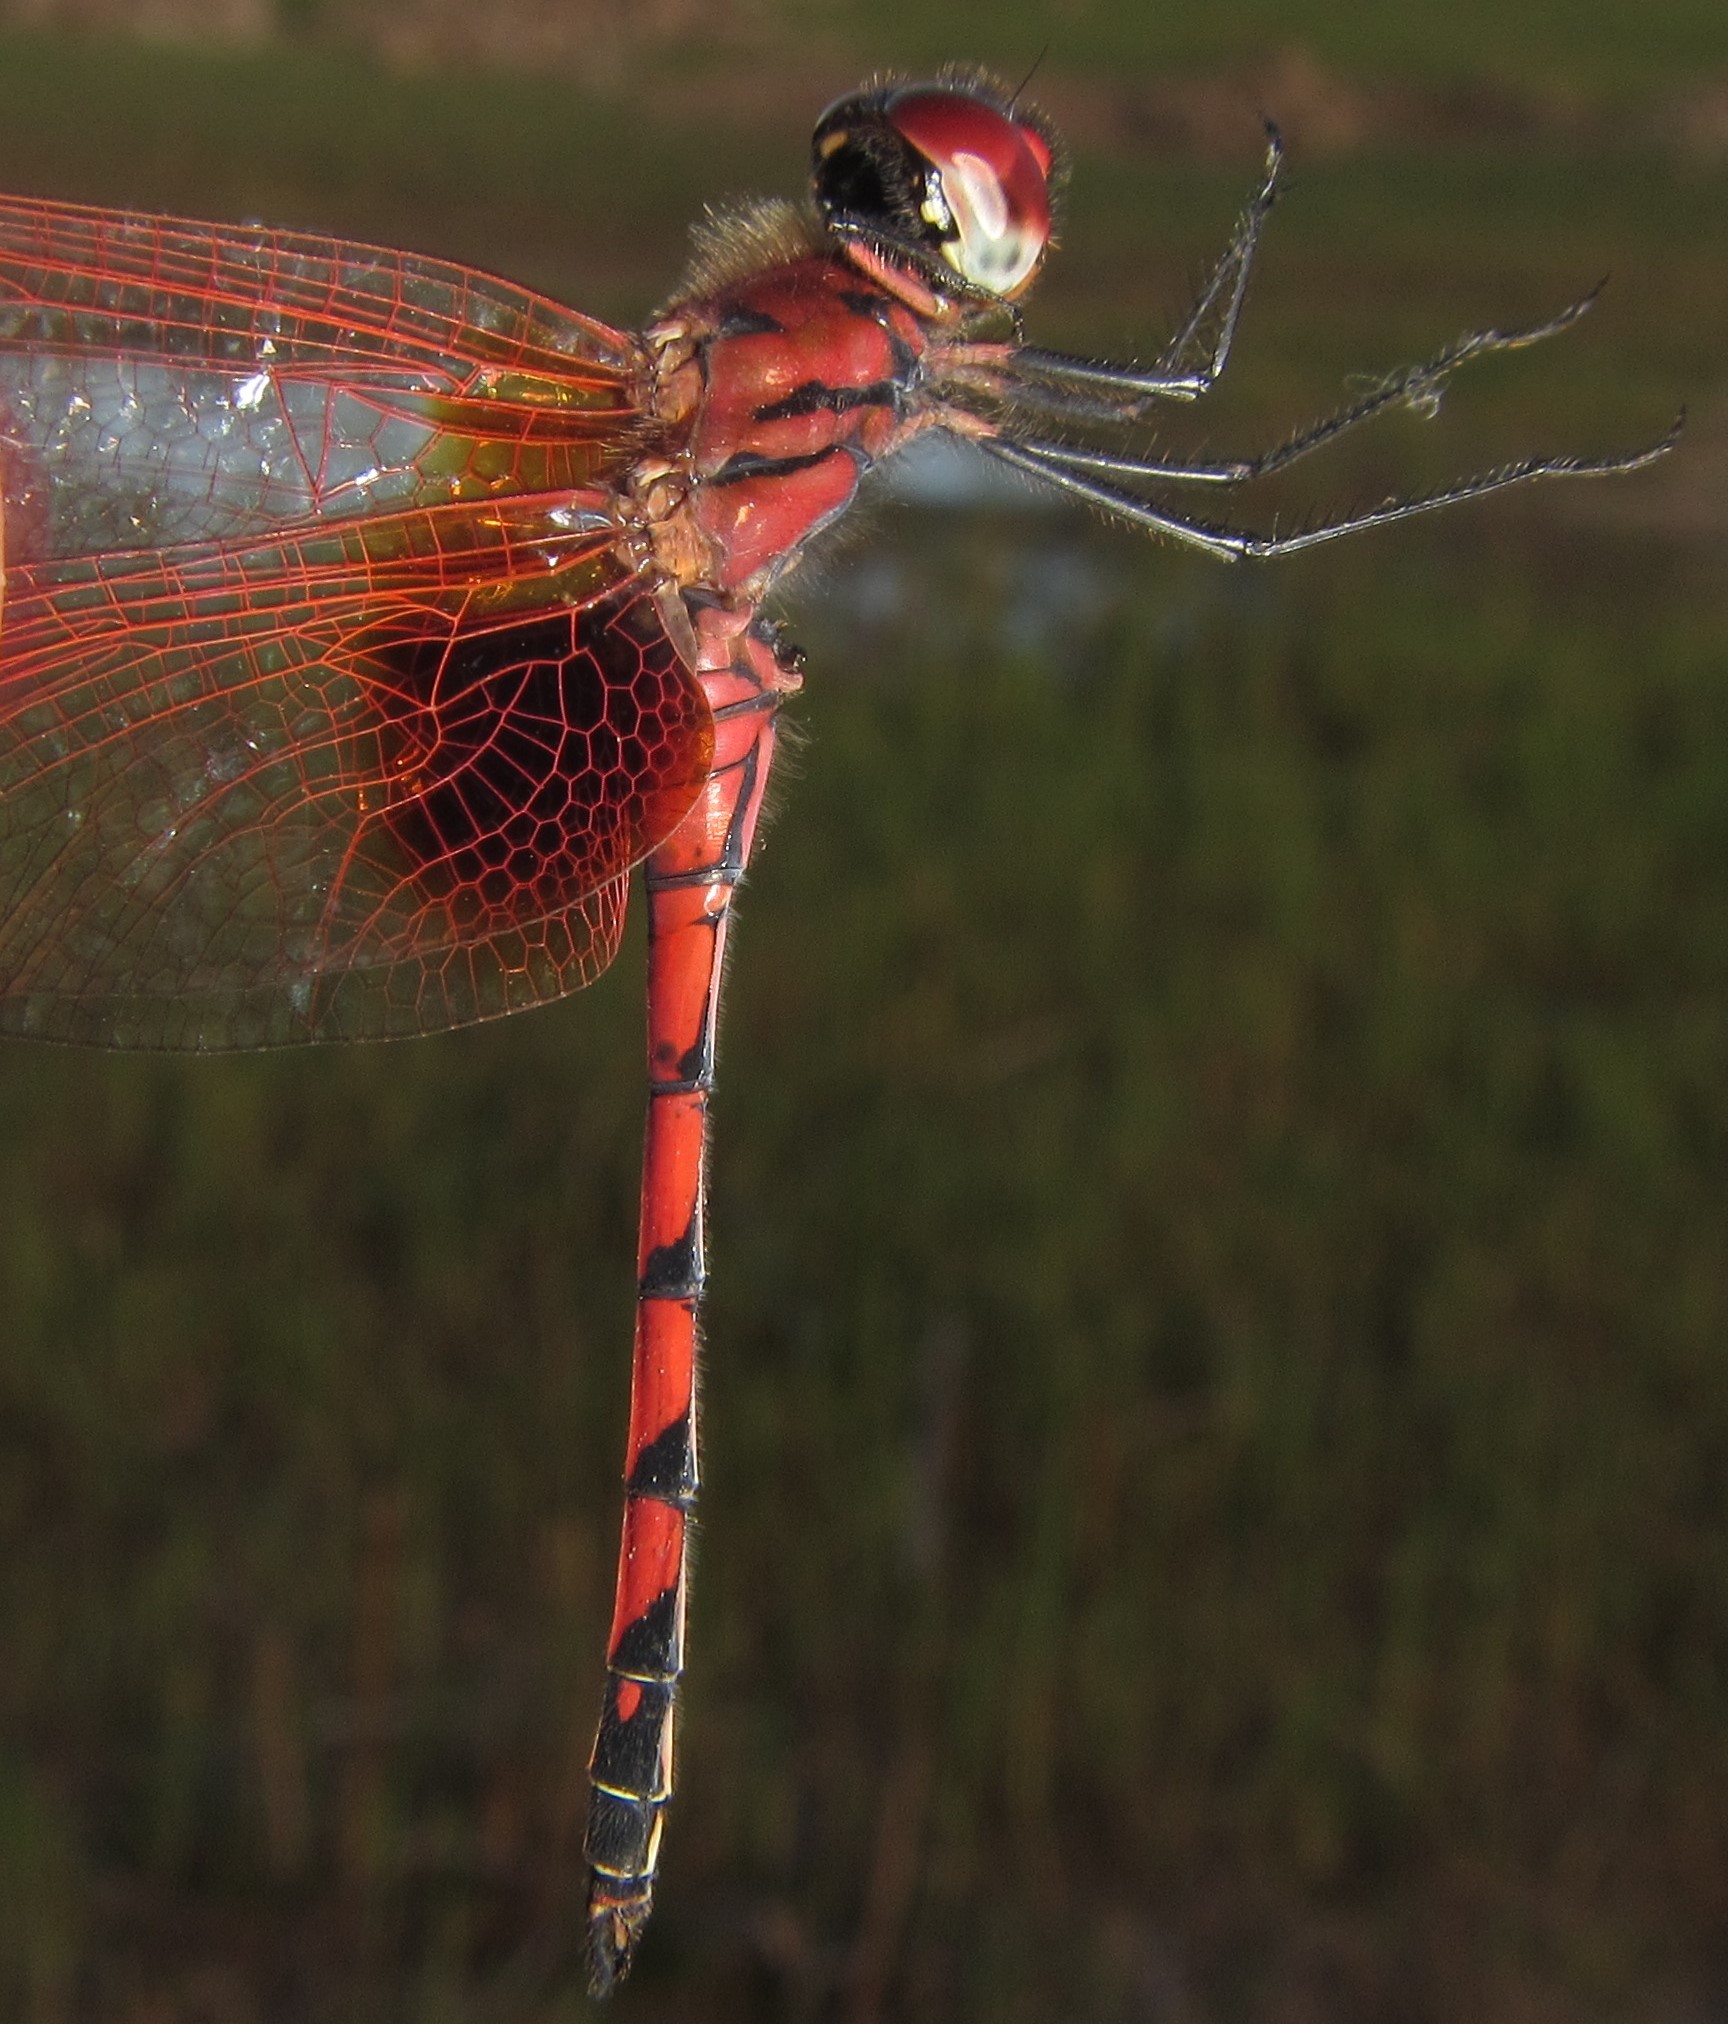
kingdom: Animalia
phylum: Arthropoda
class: Insecta
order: Odonata
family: Libellulidae
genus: Trithemis
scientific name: Trithemis monardi
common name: Monard's dropwing
